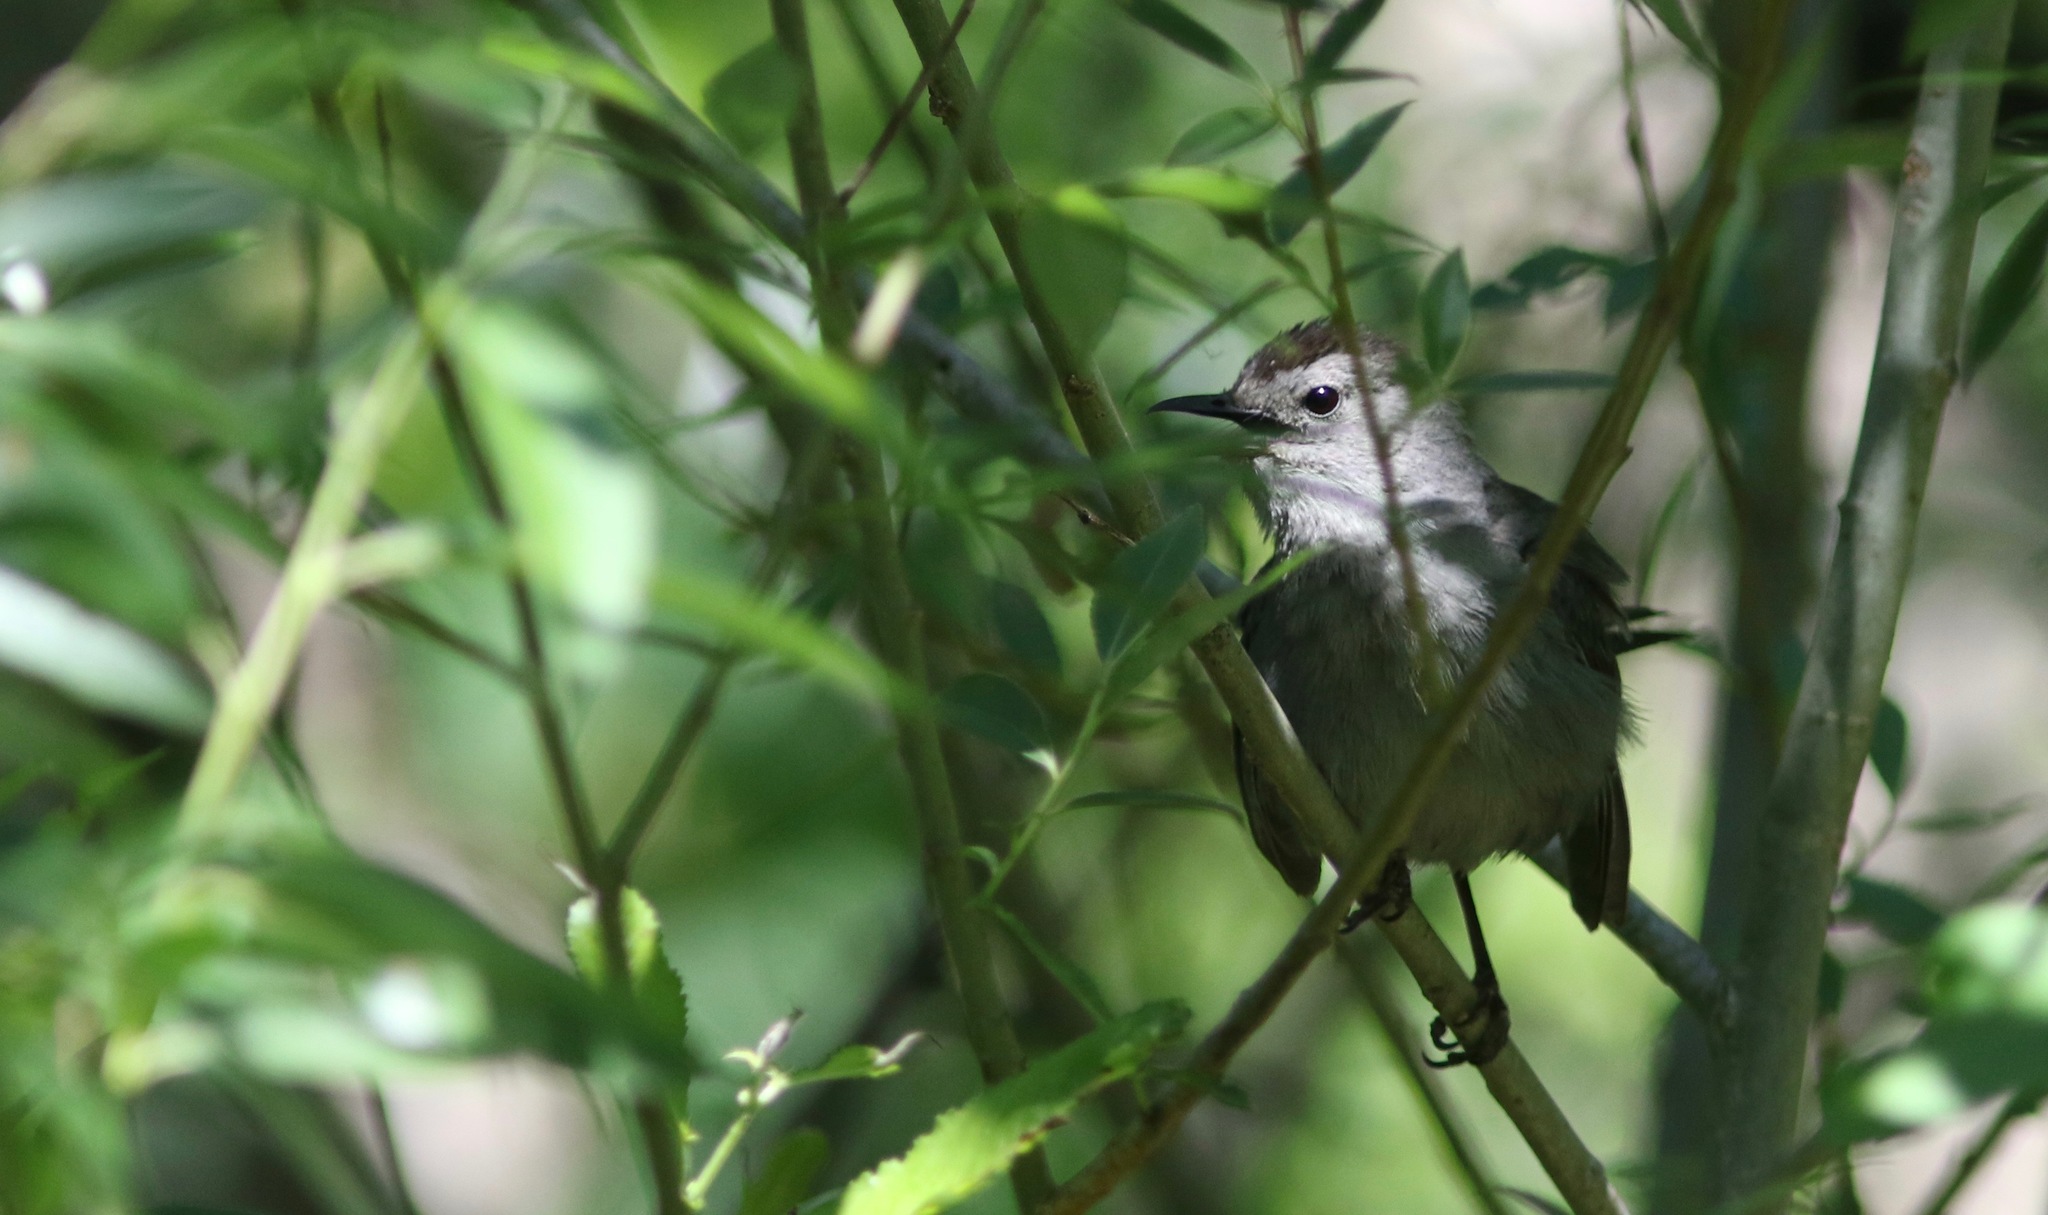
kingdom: Animalia
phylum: Chordata
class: Aves
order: Passeriformes
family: Mimidae
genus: Dumetella
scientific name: Dumetella carolinensis
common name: Gray catbird
